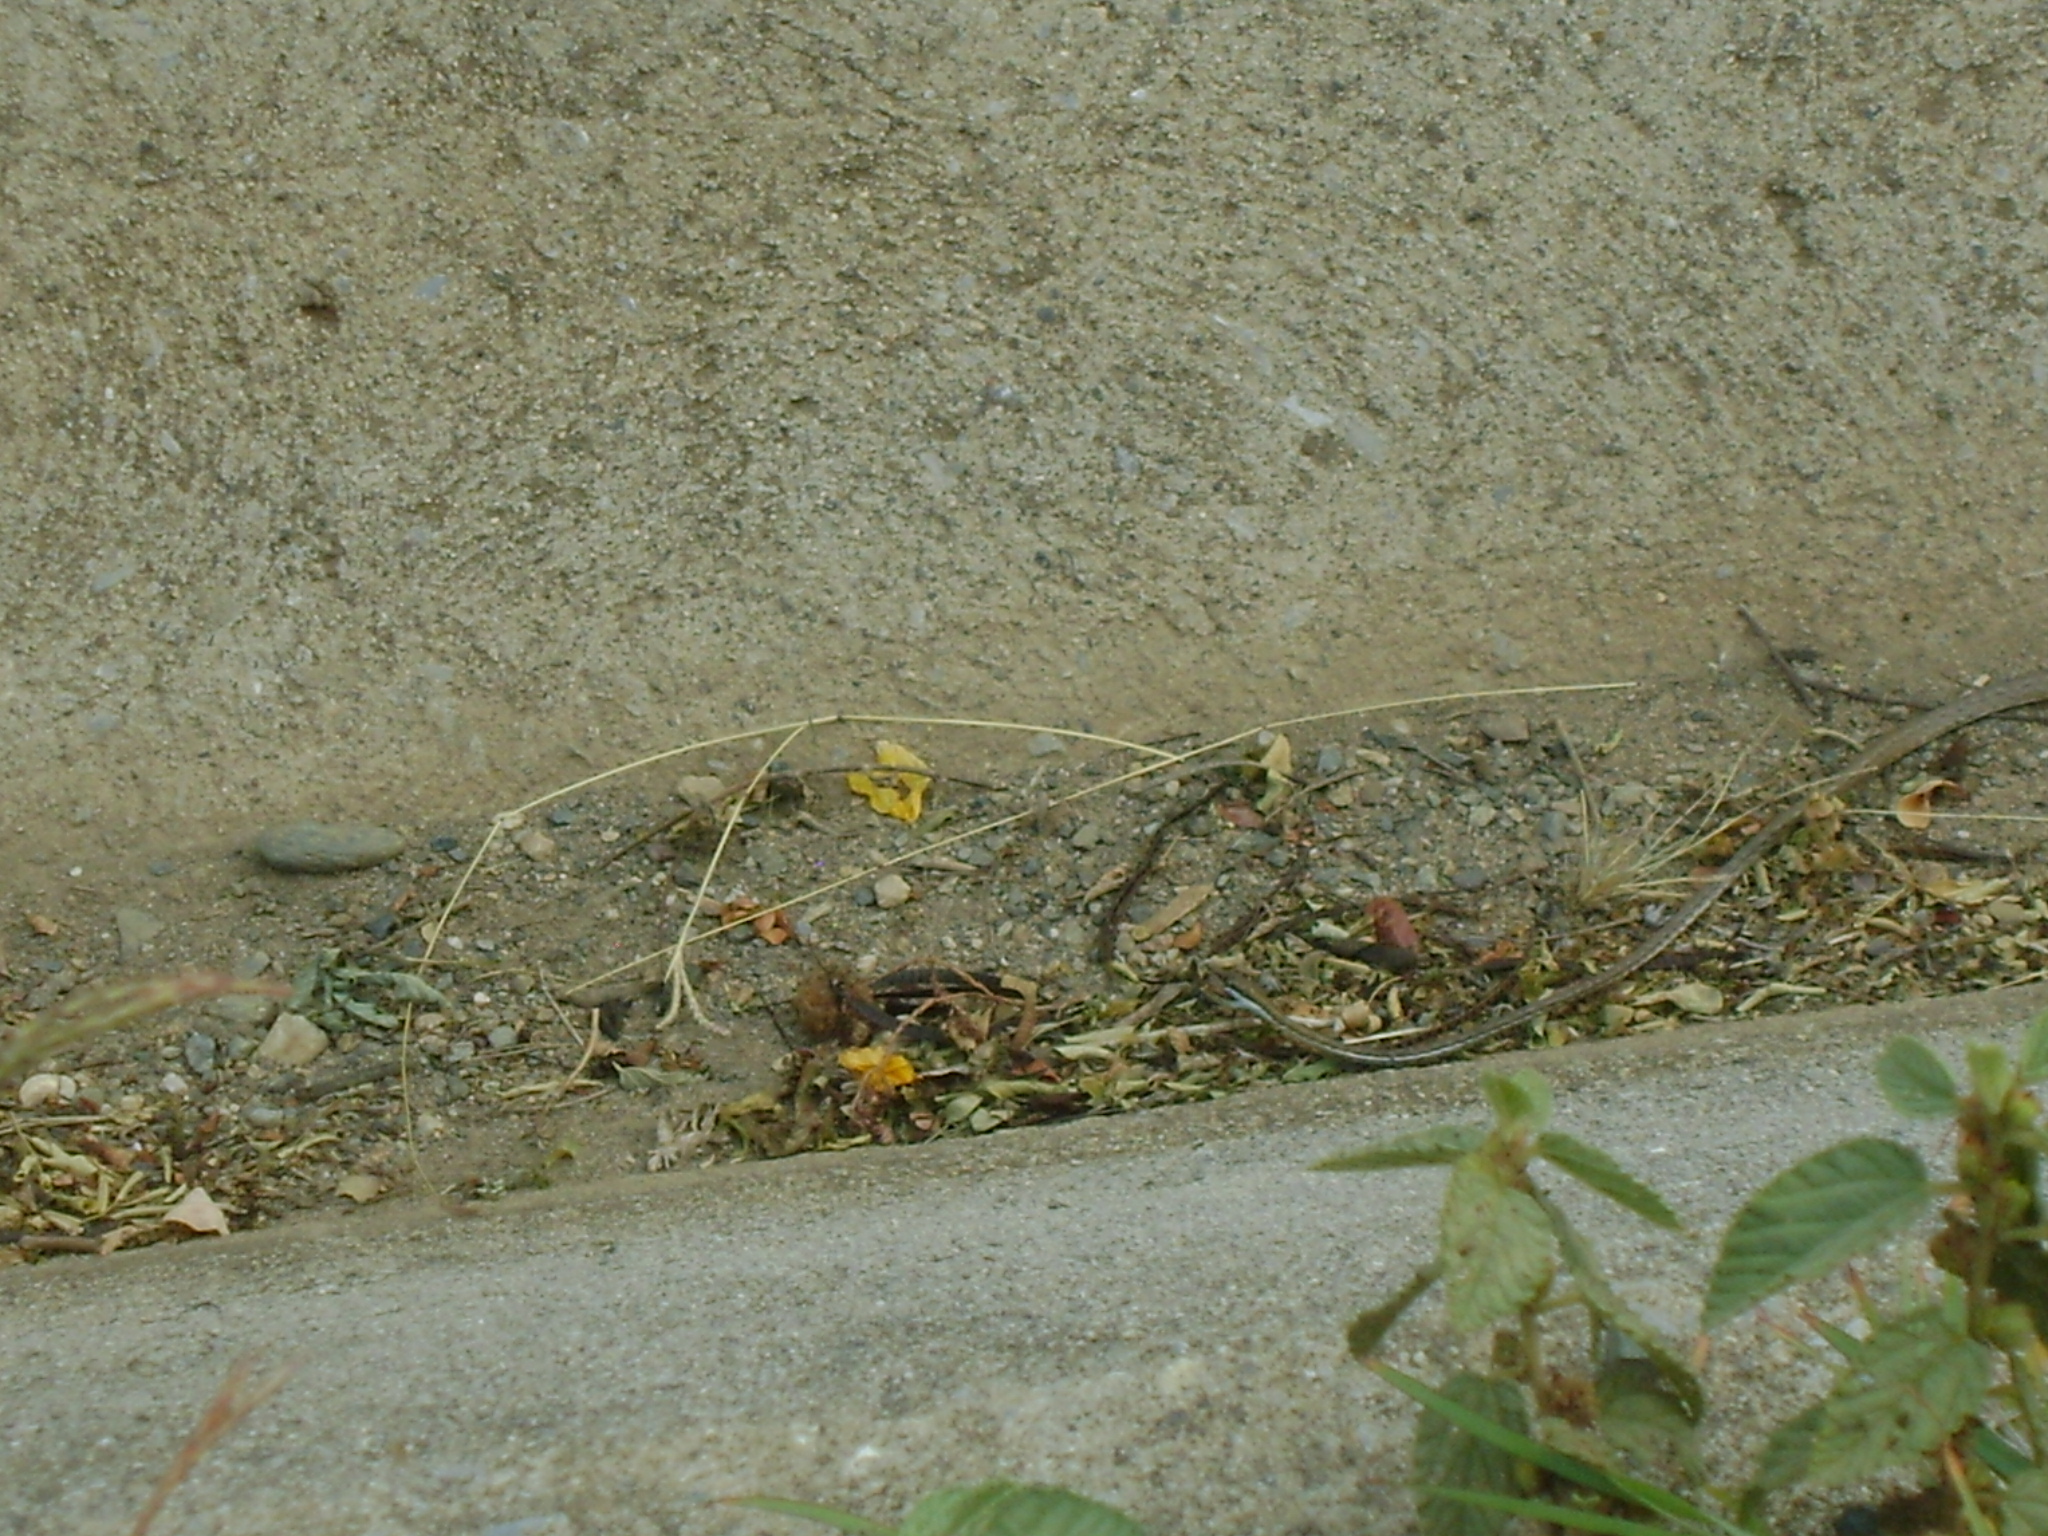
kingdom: Animalia
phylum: Chordata
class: Squamata
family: Colubridae
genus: Oxybelis
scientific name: Oxybelis microphthalmus
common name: Thrornscrub vine snake
